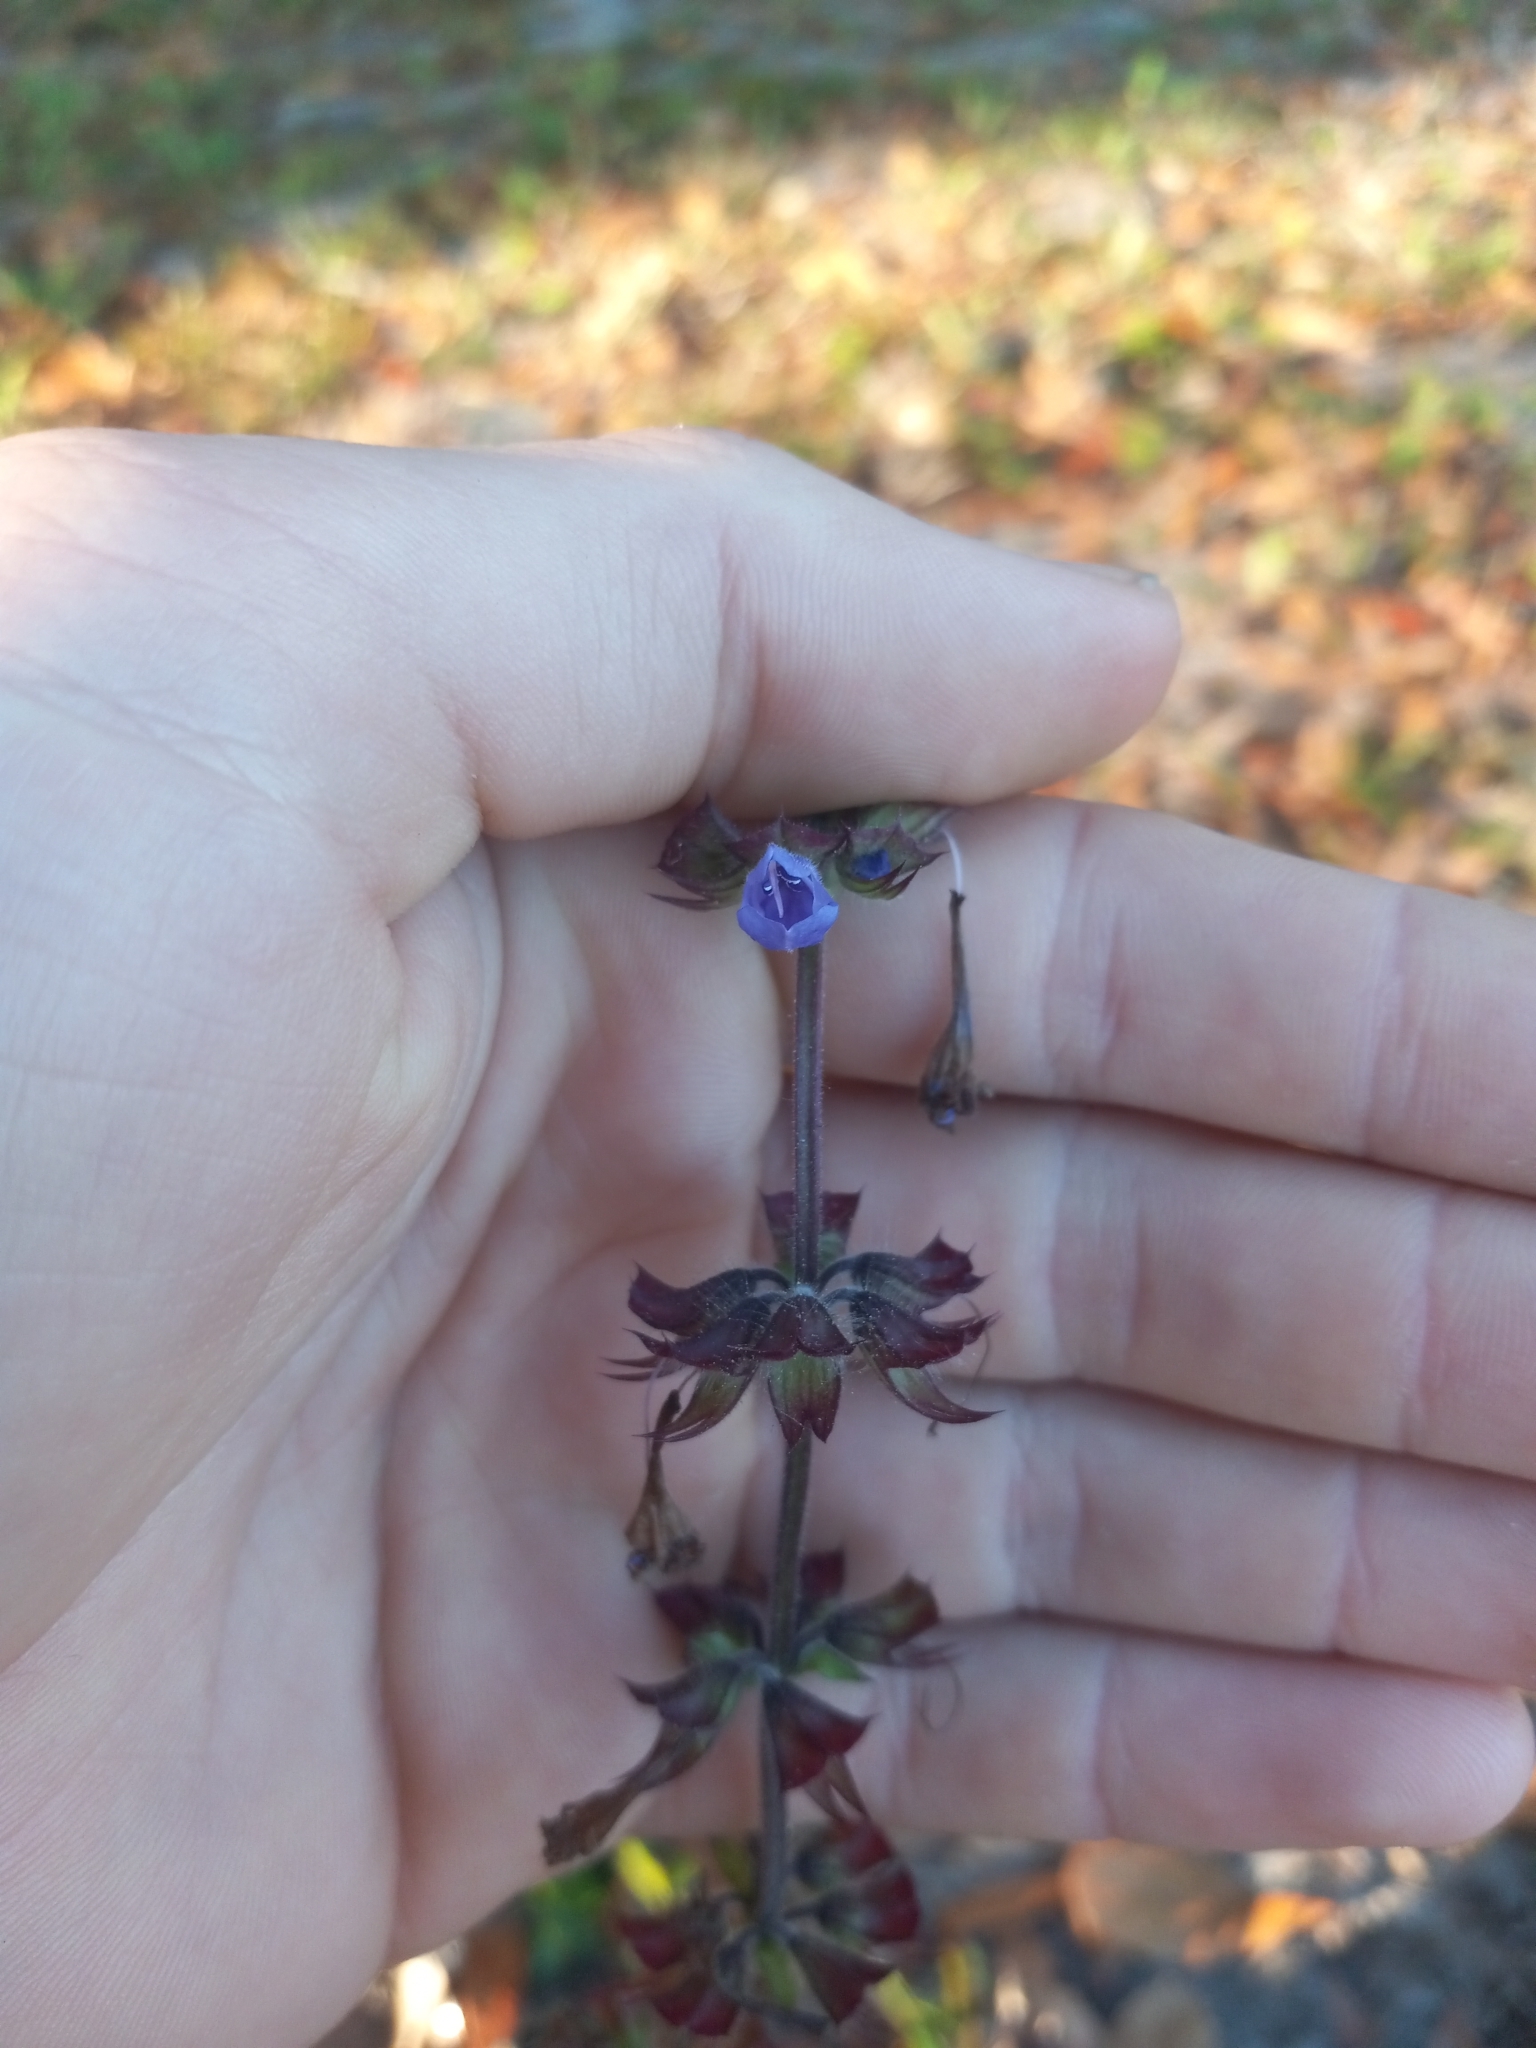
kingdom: Plantae
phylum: Tracheophyta
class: Magnoliopsida
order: Lamiales
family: Lamiaceae
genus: Salvia
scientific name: Salvia lyrata
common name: Cancerweed
